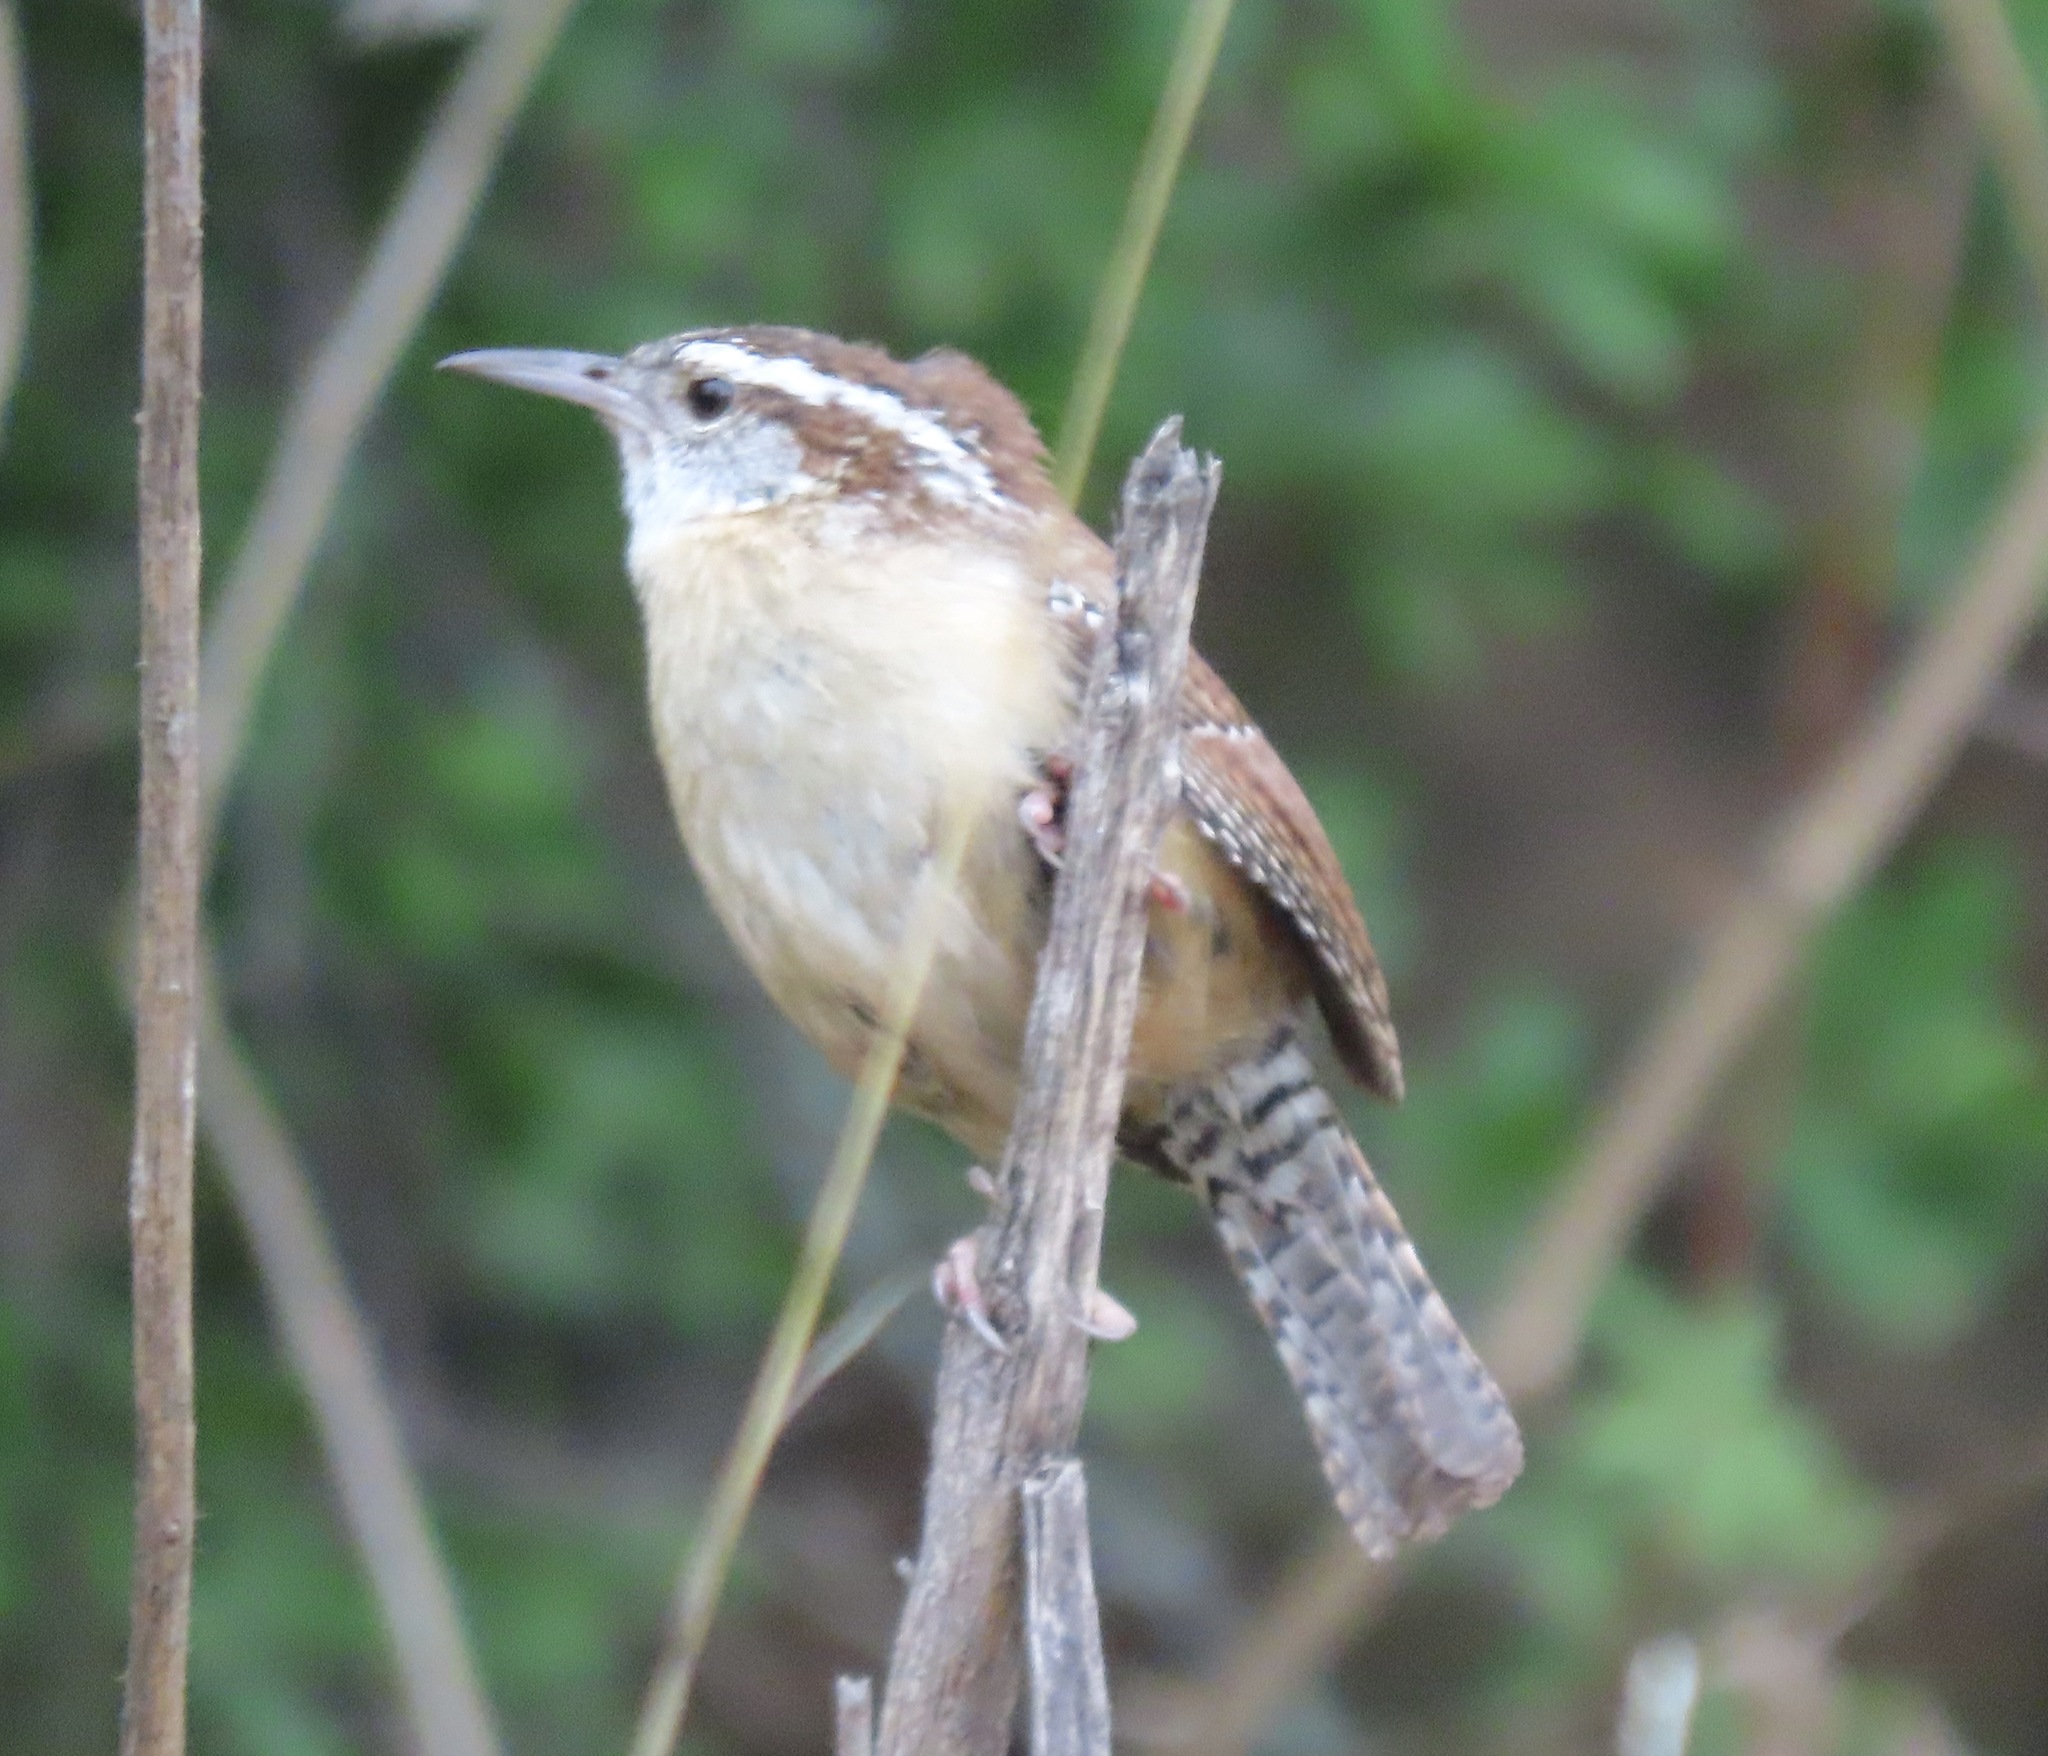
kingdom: Animalia
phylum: Chordata
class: Aves
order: Passeriformes
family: Troglodytidae
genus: Thryothorus
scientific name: Thryothorus ludovicianus
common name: Carolina wren
